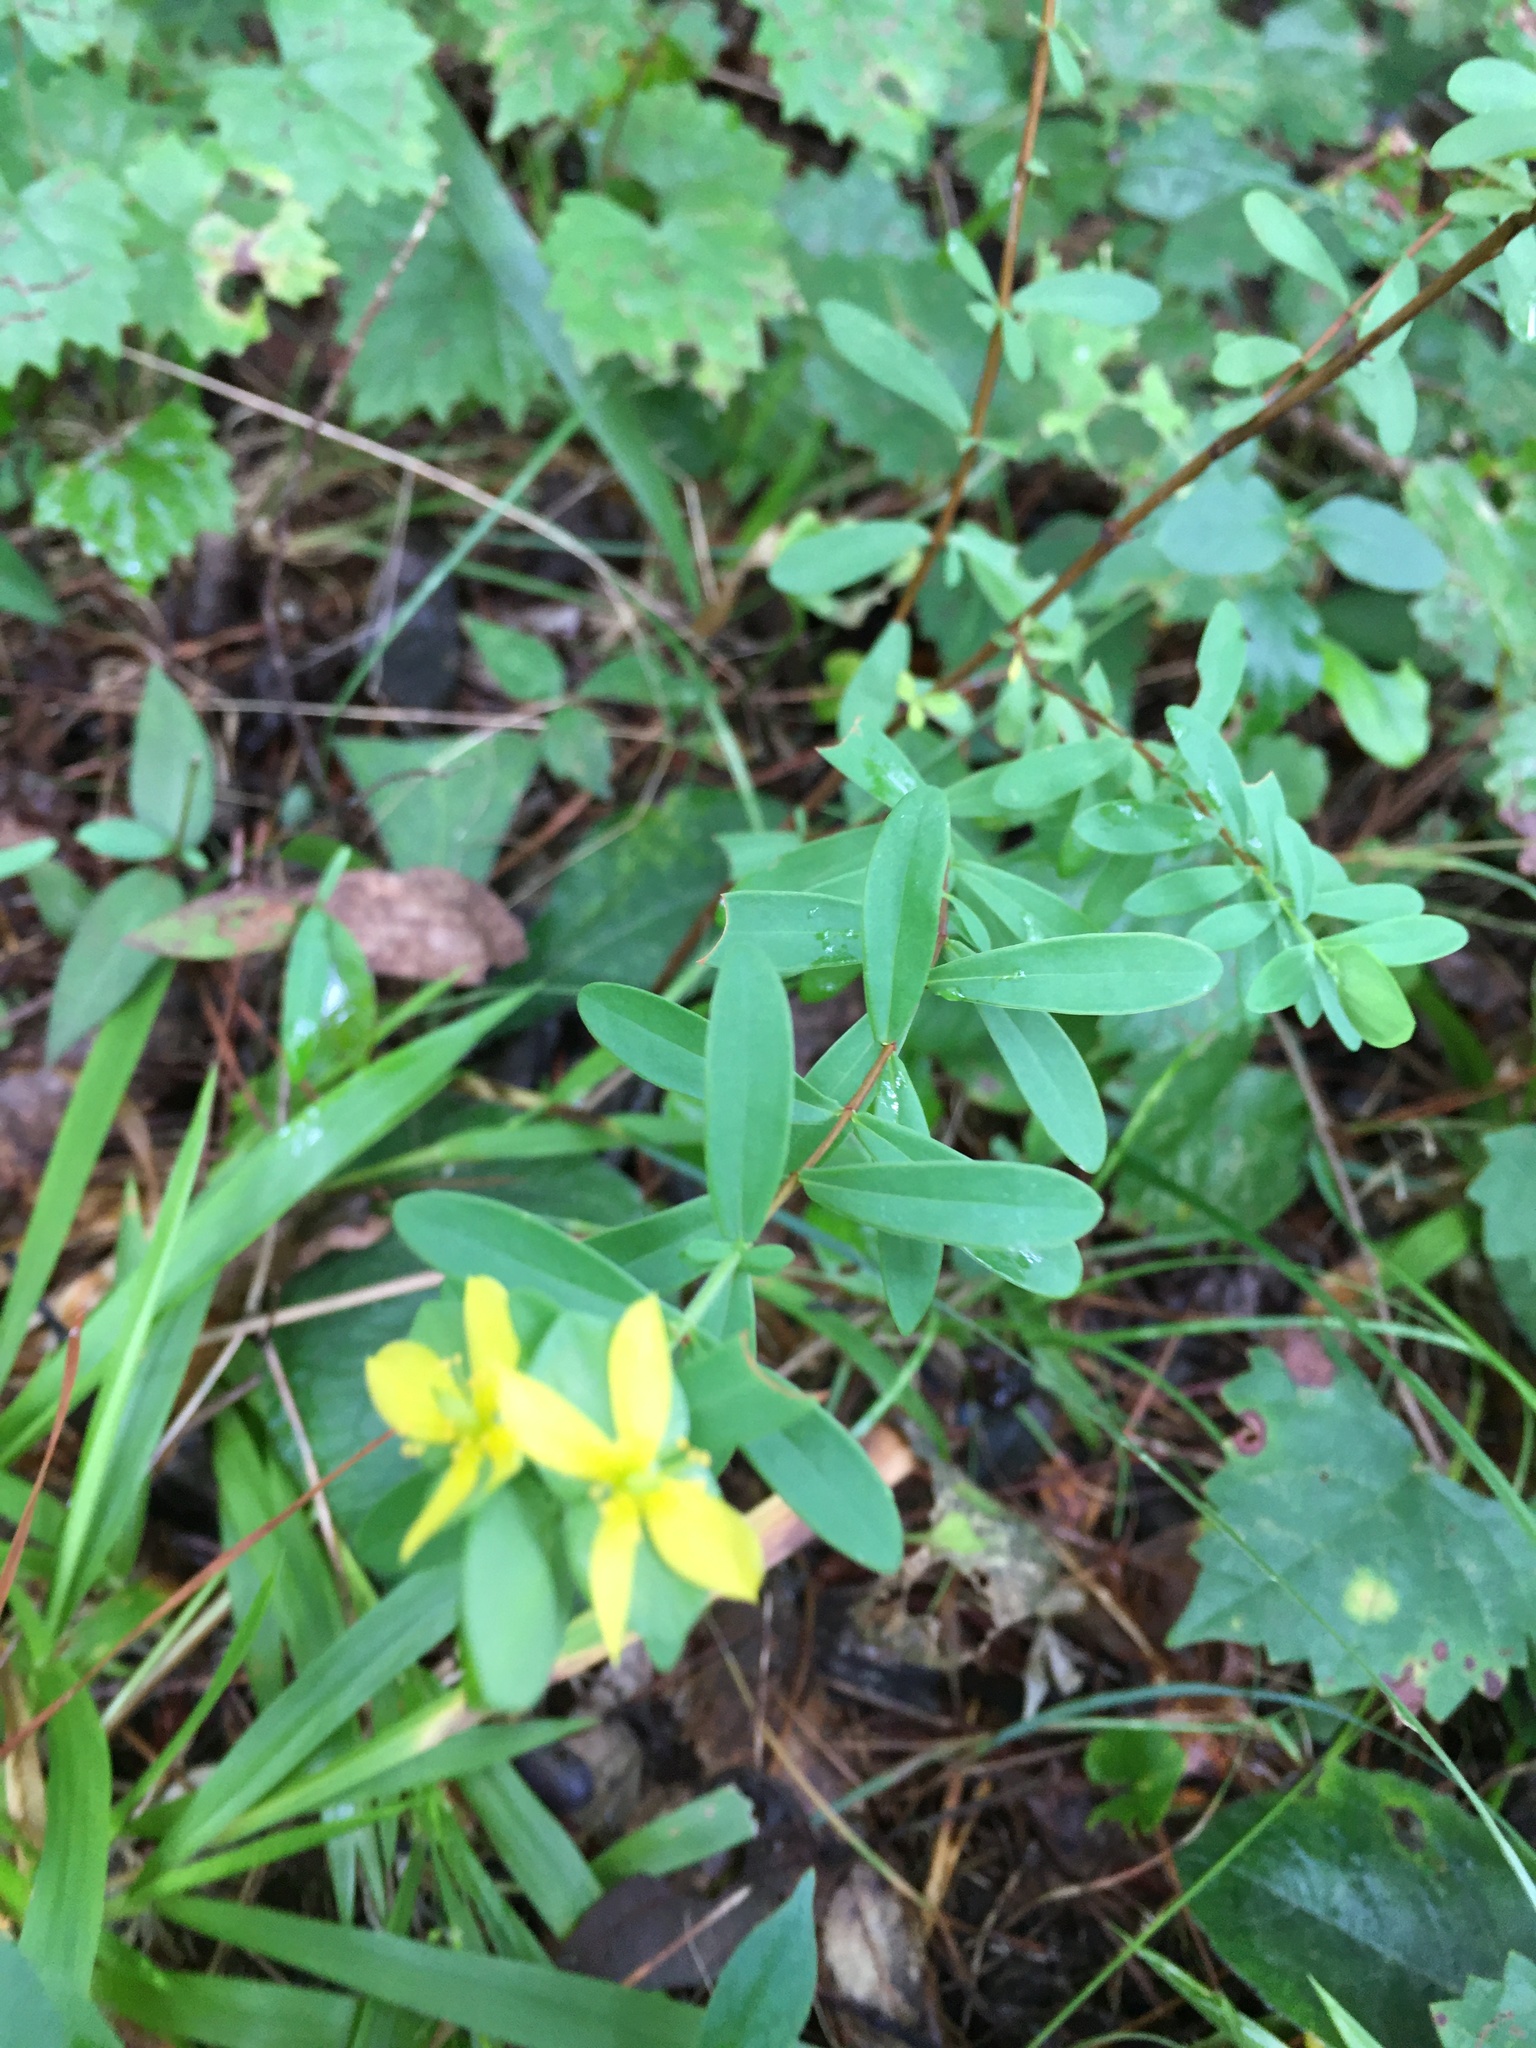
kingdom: Plantae
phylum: Tracheophyta
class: Magnoliopsida
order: Malpighiales
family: Hypericaceae
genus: Hypericum
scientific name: Hypericum hypericoides
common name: St. andrew's cross
